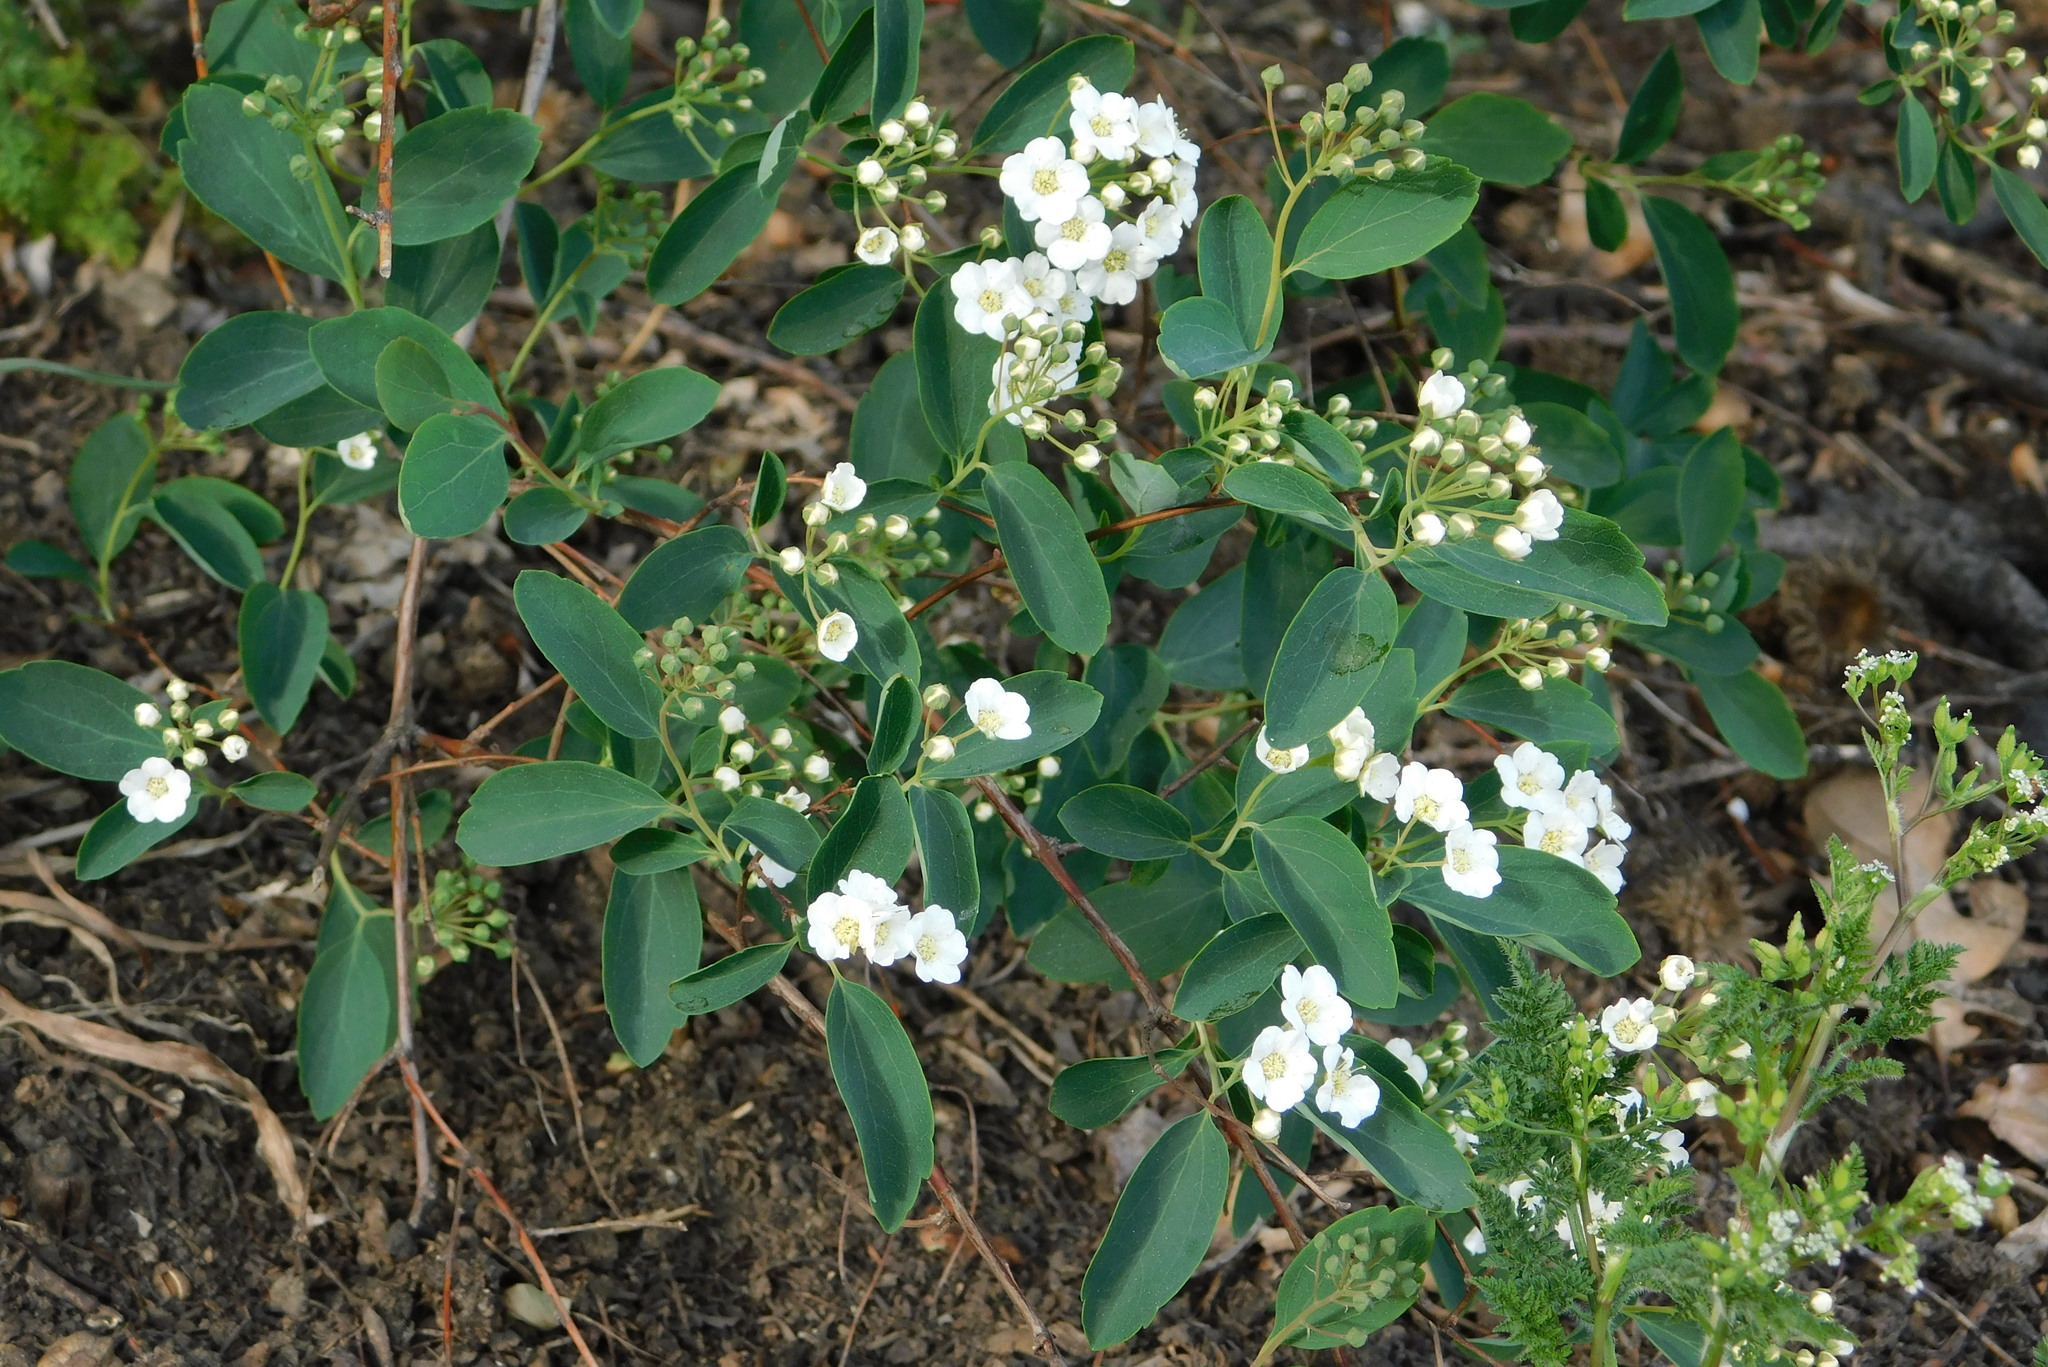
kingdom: Plantae
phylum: Tracheophyta
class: Magnoliopsida
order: Rosales
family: Rosaceae
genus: Spiraea
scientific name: Spiraea vanhouttei
